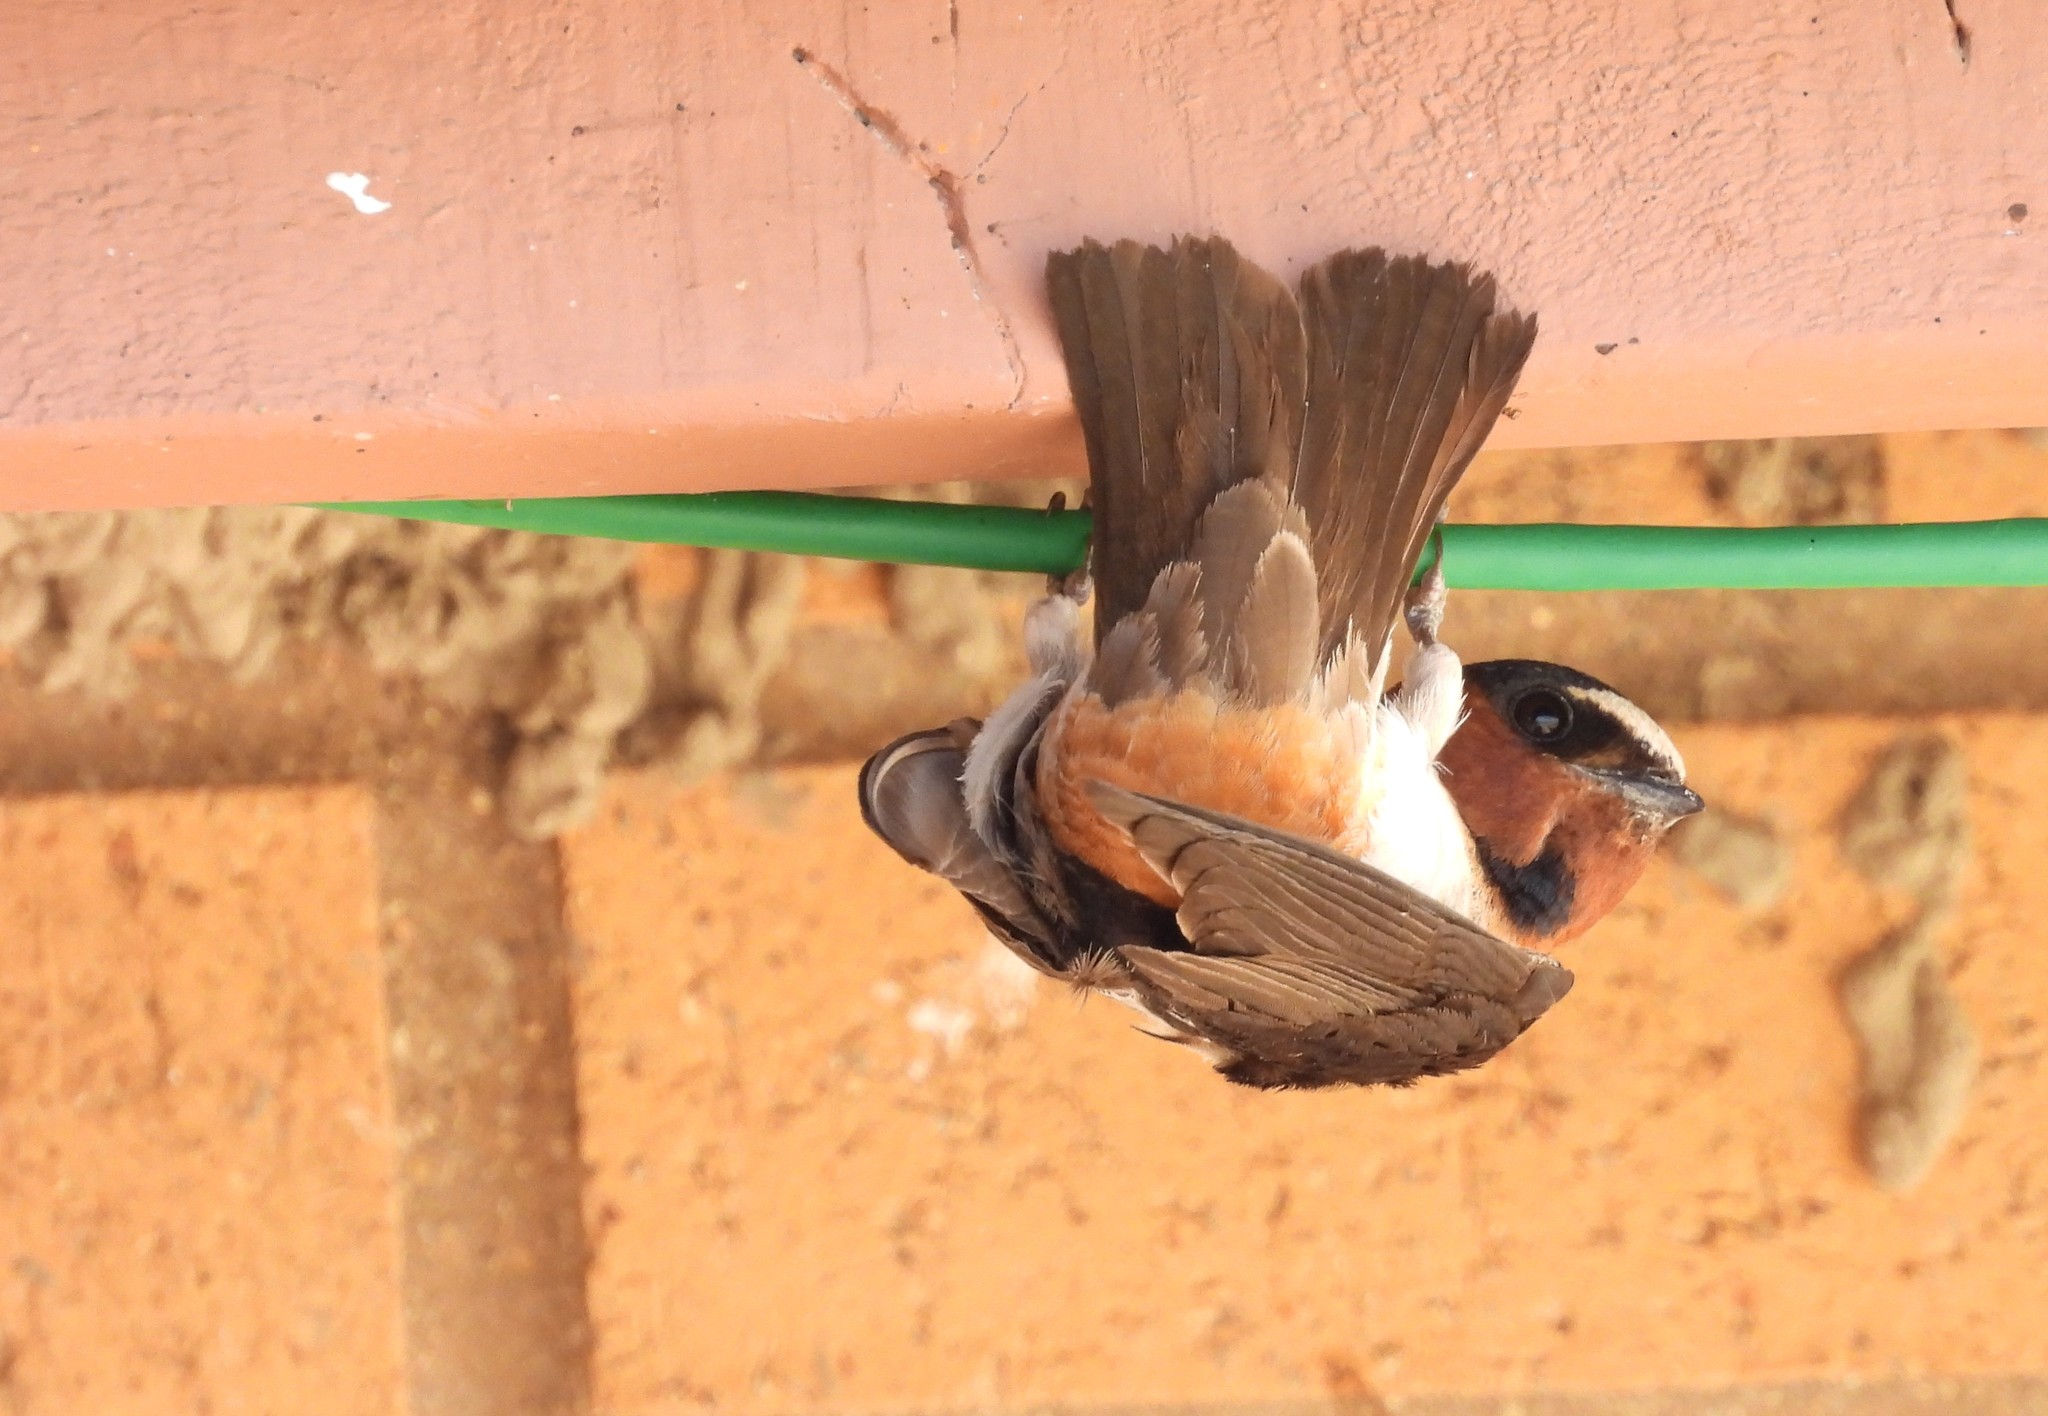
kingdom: Animalia
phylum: Chordata
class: Aves
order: Passeriformes
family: Hirundinidae
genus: Petrochelidon
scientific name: Petrochelidon pyrrhonota
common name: American cliff swallow
